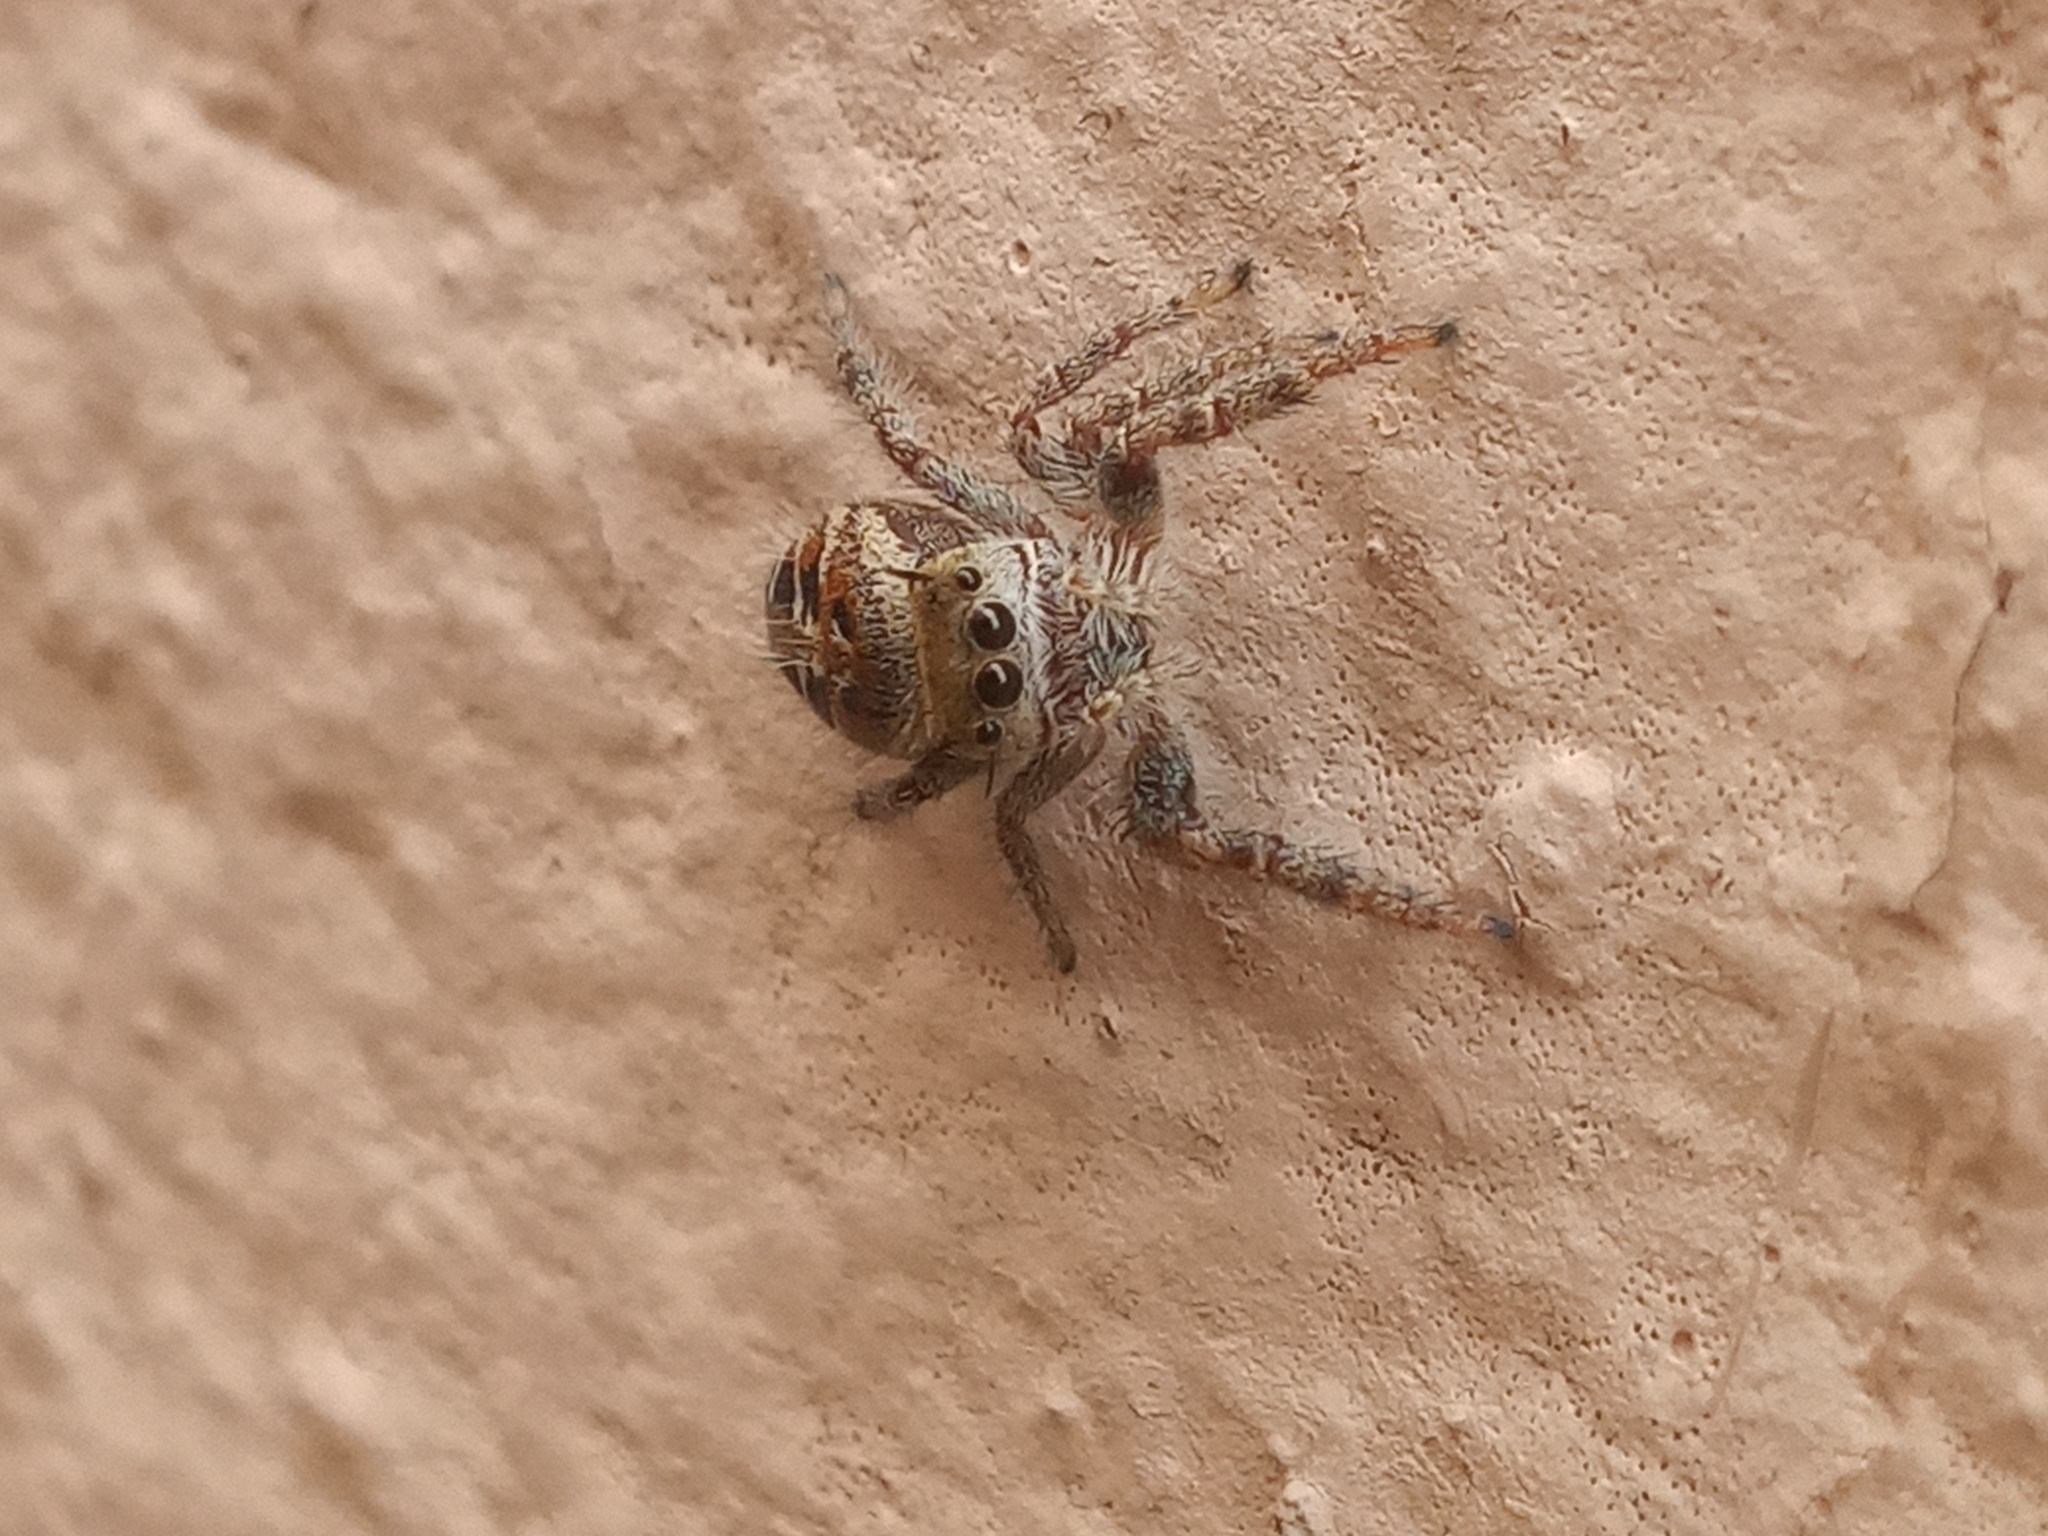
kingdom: Animalia
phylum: Arthropoda
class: Arachnida
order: Araneae
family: Salticidae
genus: Phidippus
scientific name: Phidippus arizonensis
